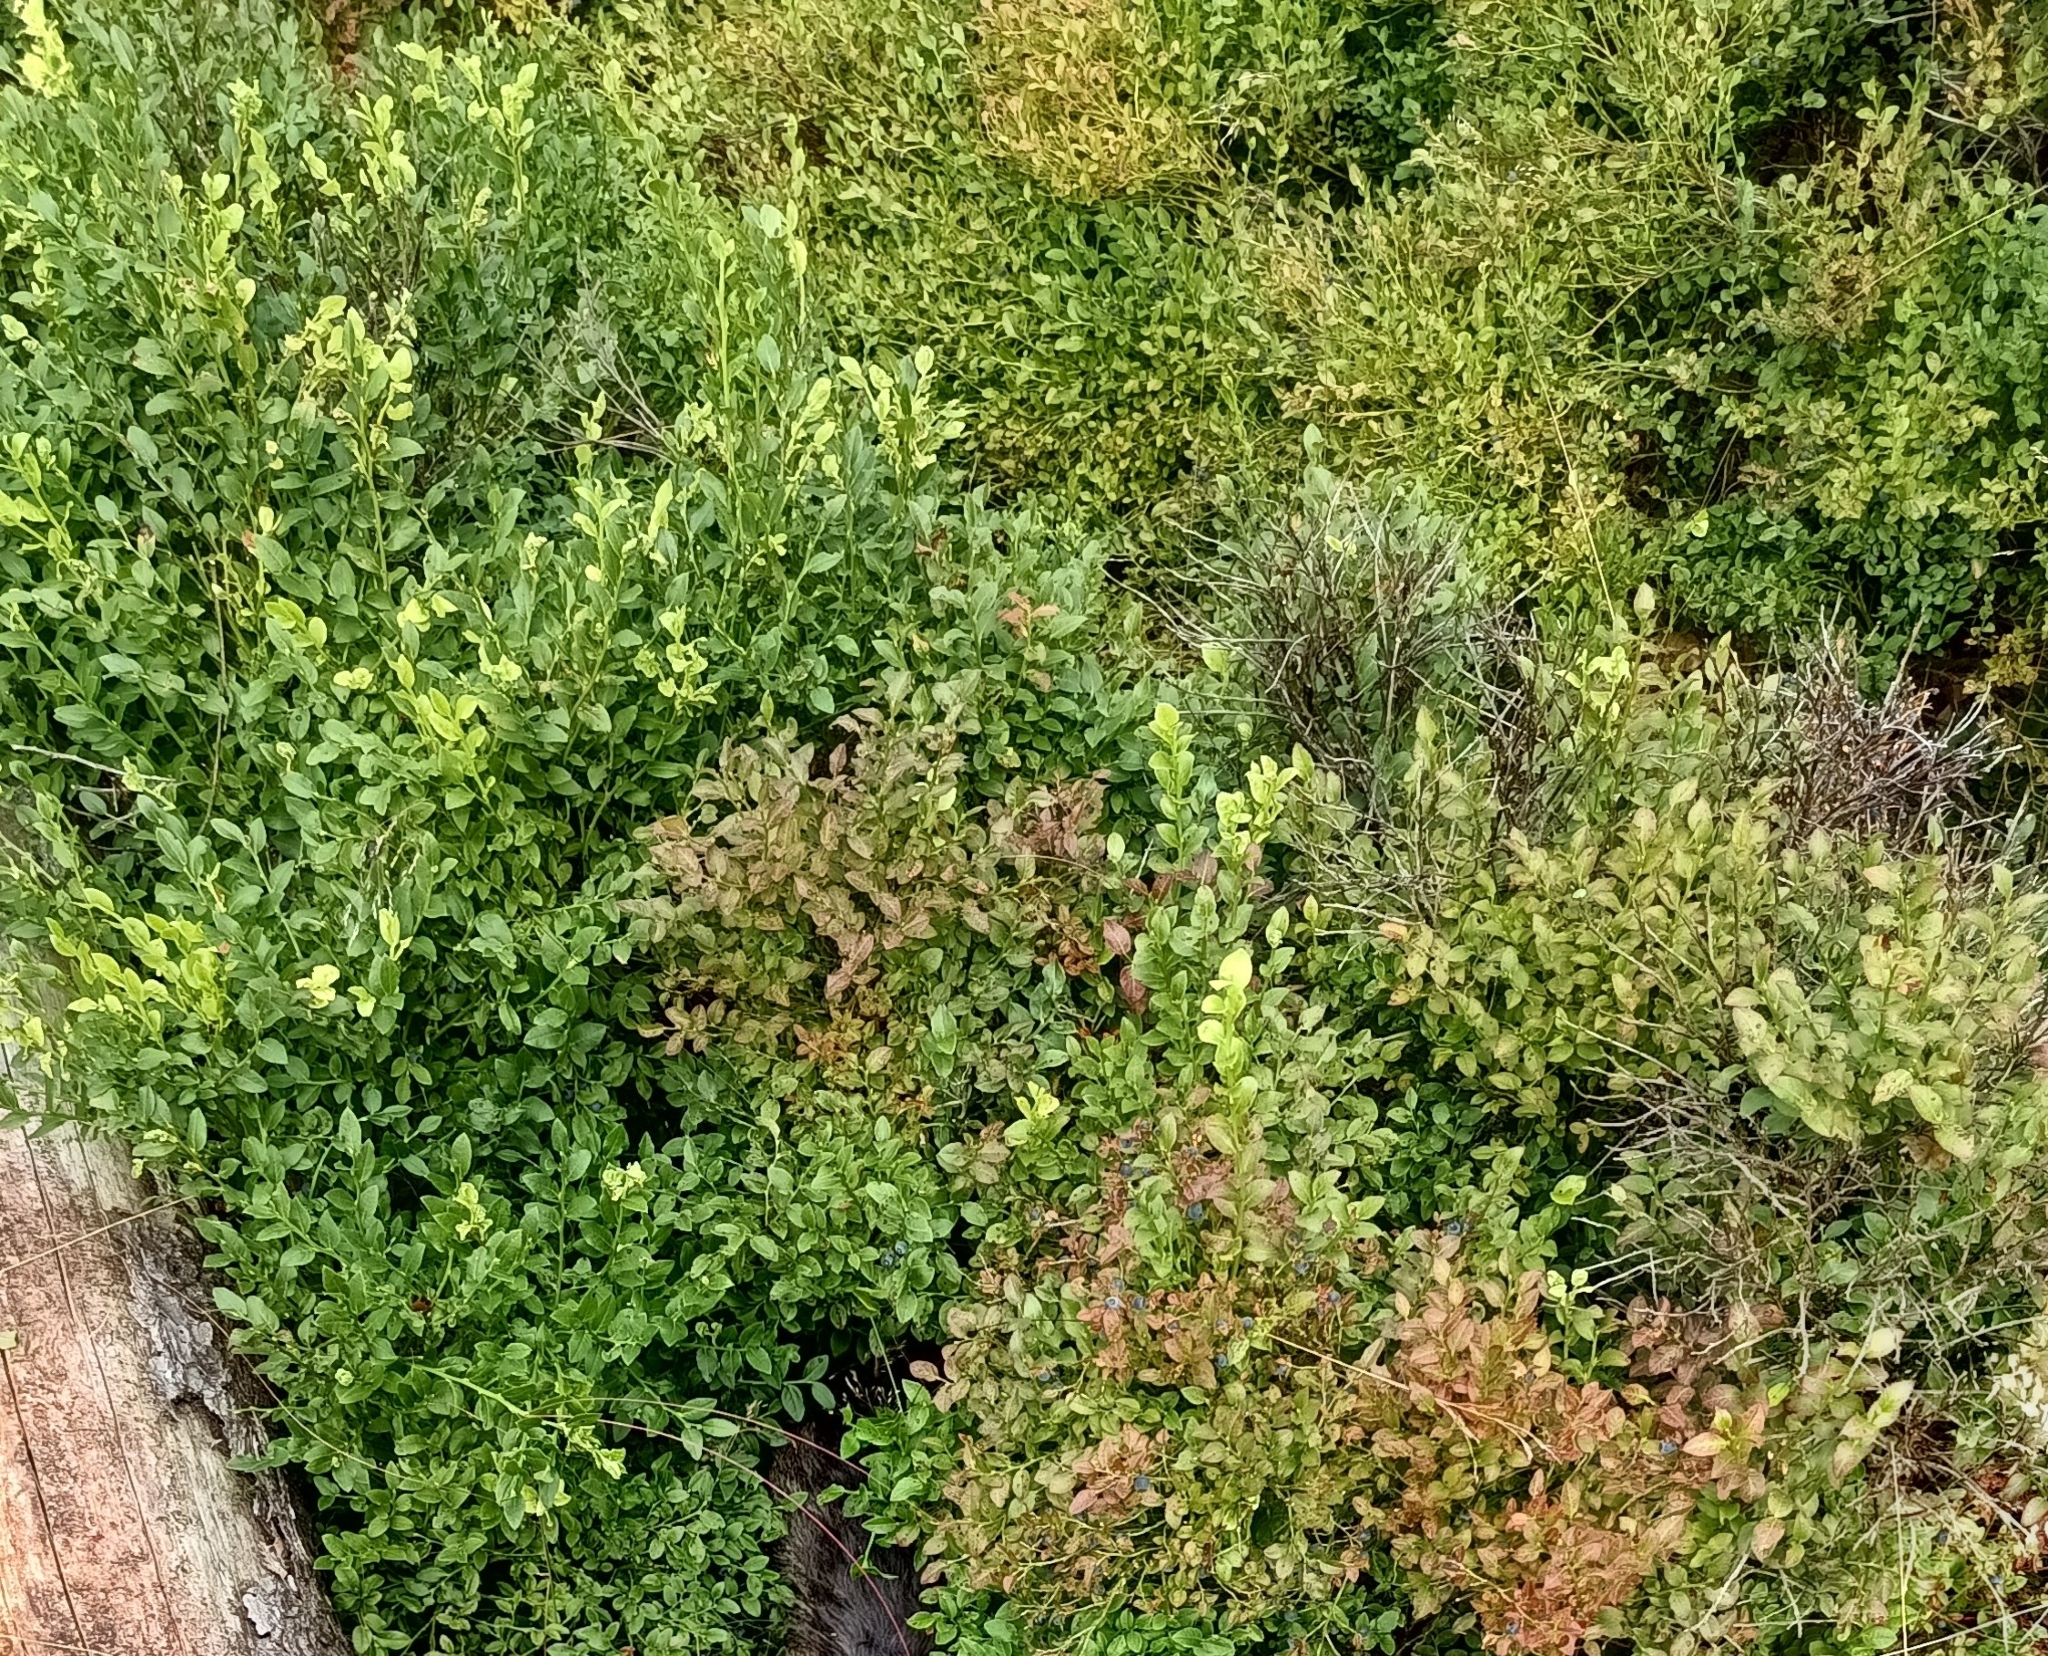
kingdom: Plantae
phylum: Tracheophyta
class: Magnoliopsida
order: Ericales
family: Ericaceae
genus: Vaccinium
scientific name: Vaccinium myrtillus
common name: Bilberry
